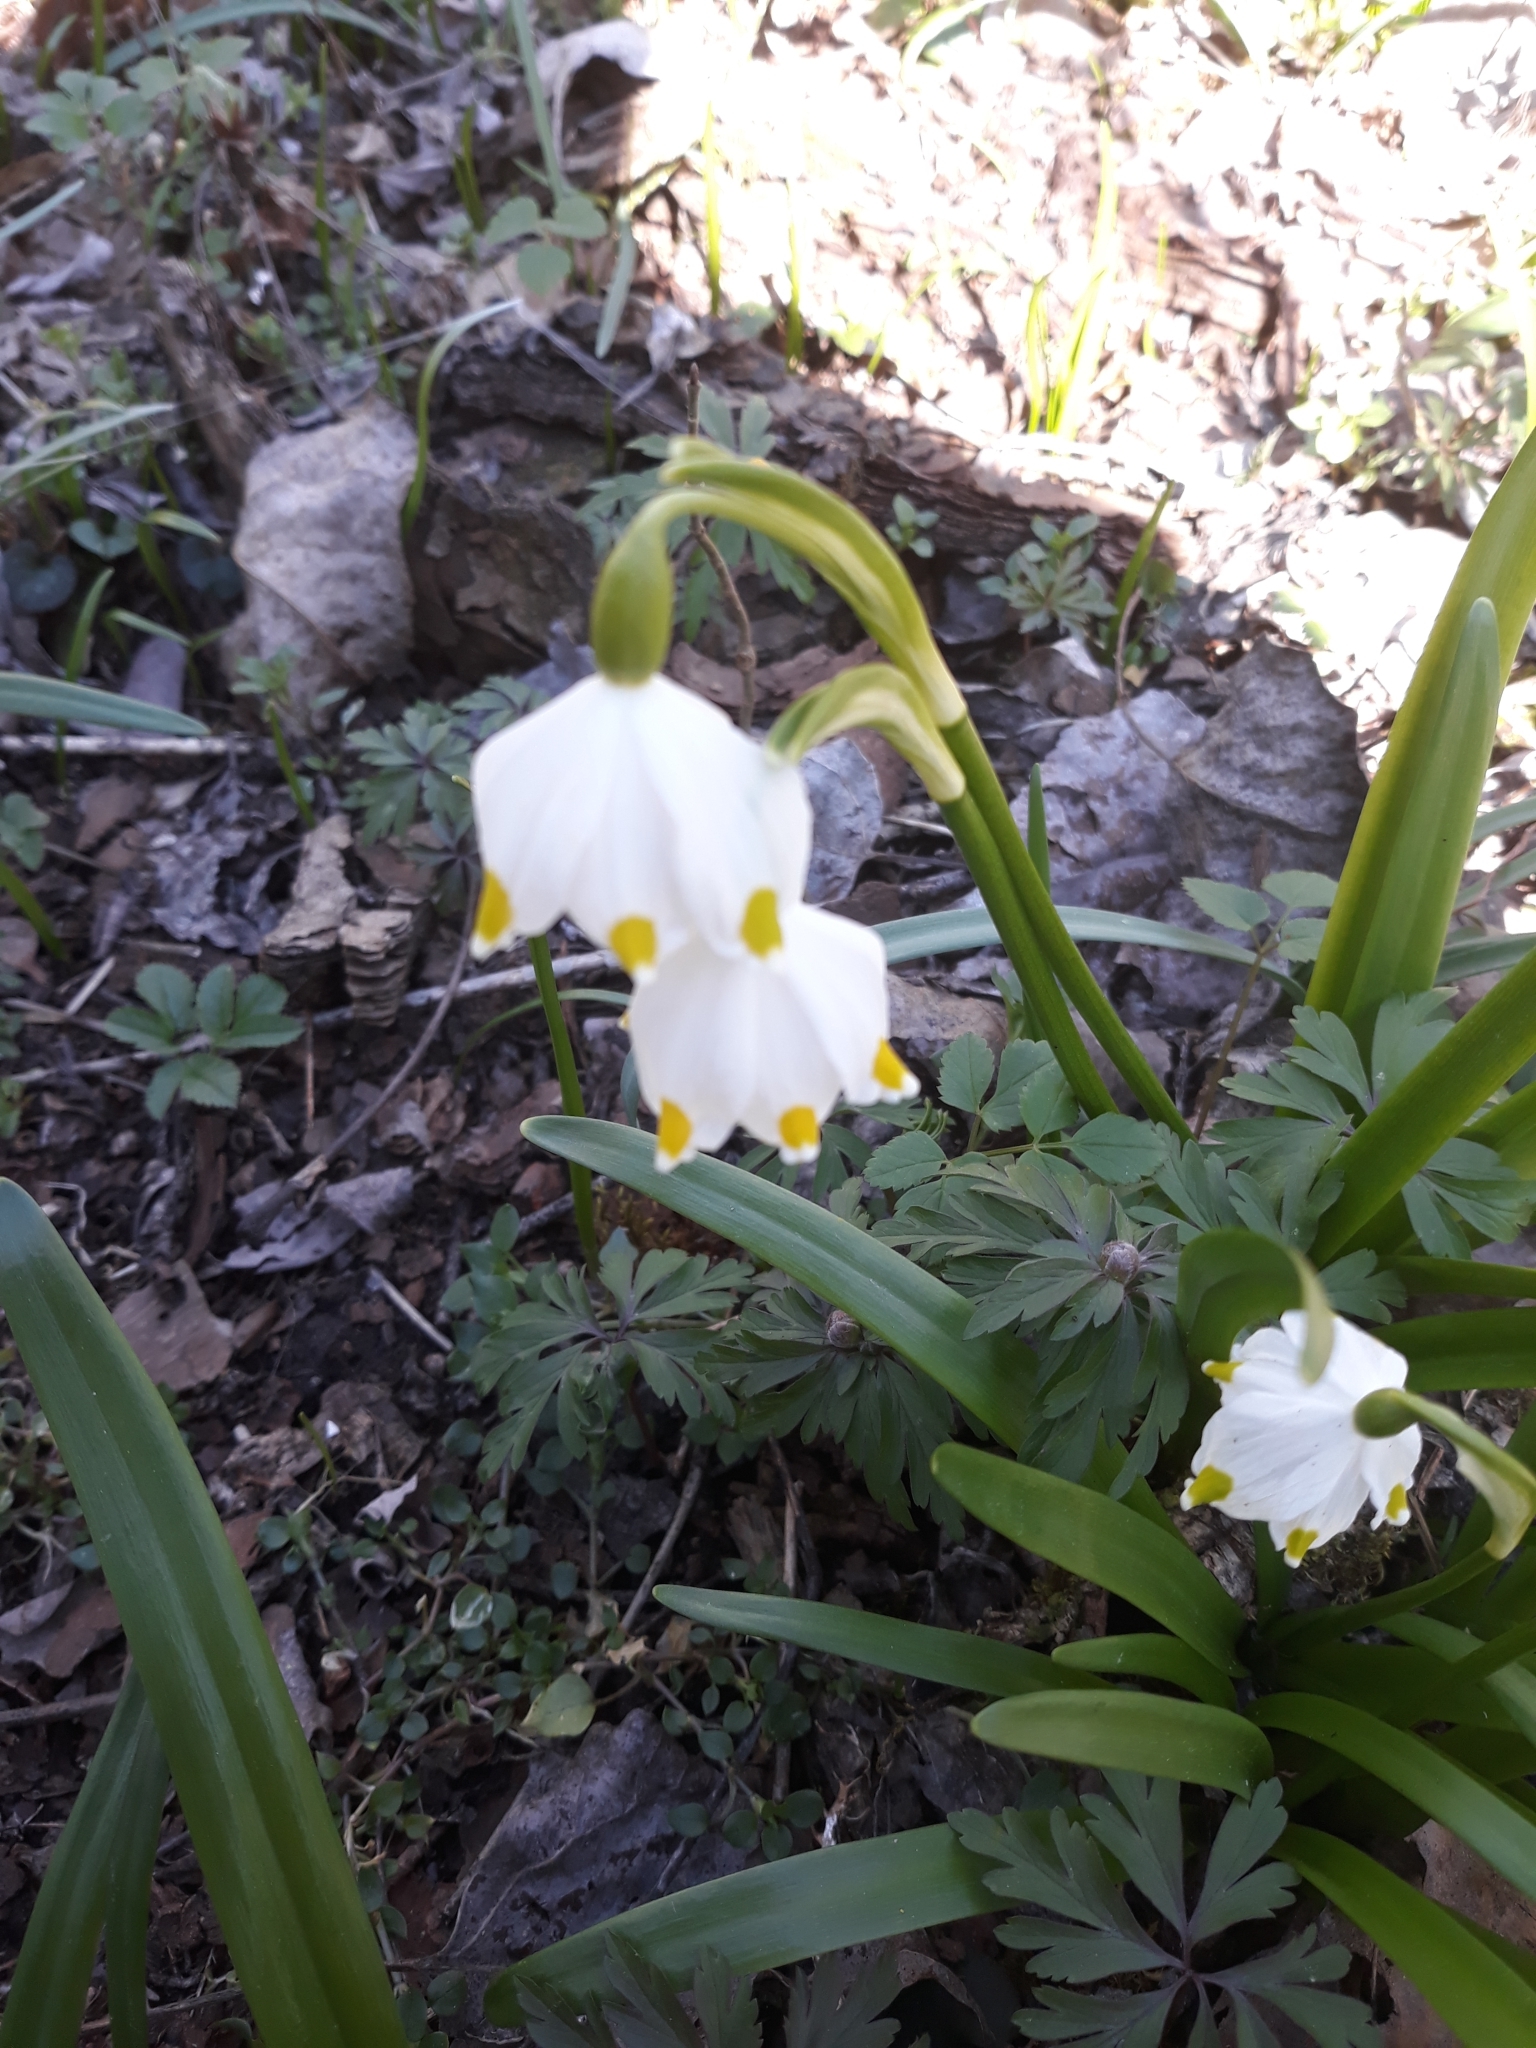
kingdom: Plantae
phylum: Tracheophyta
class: Liliopsida
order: Asparagales
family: Amaryllidaceae
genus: Leucojum
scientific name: Leucojum vernum
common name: Spring snowflake
